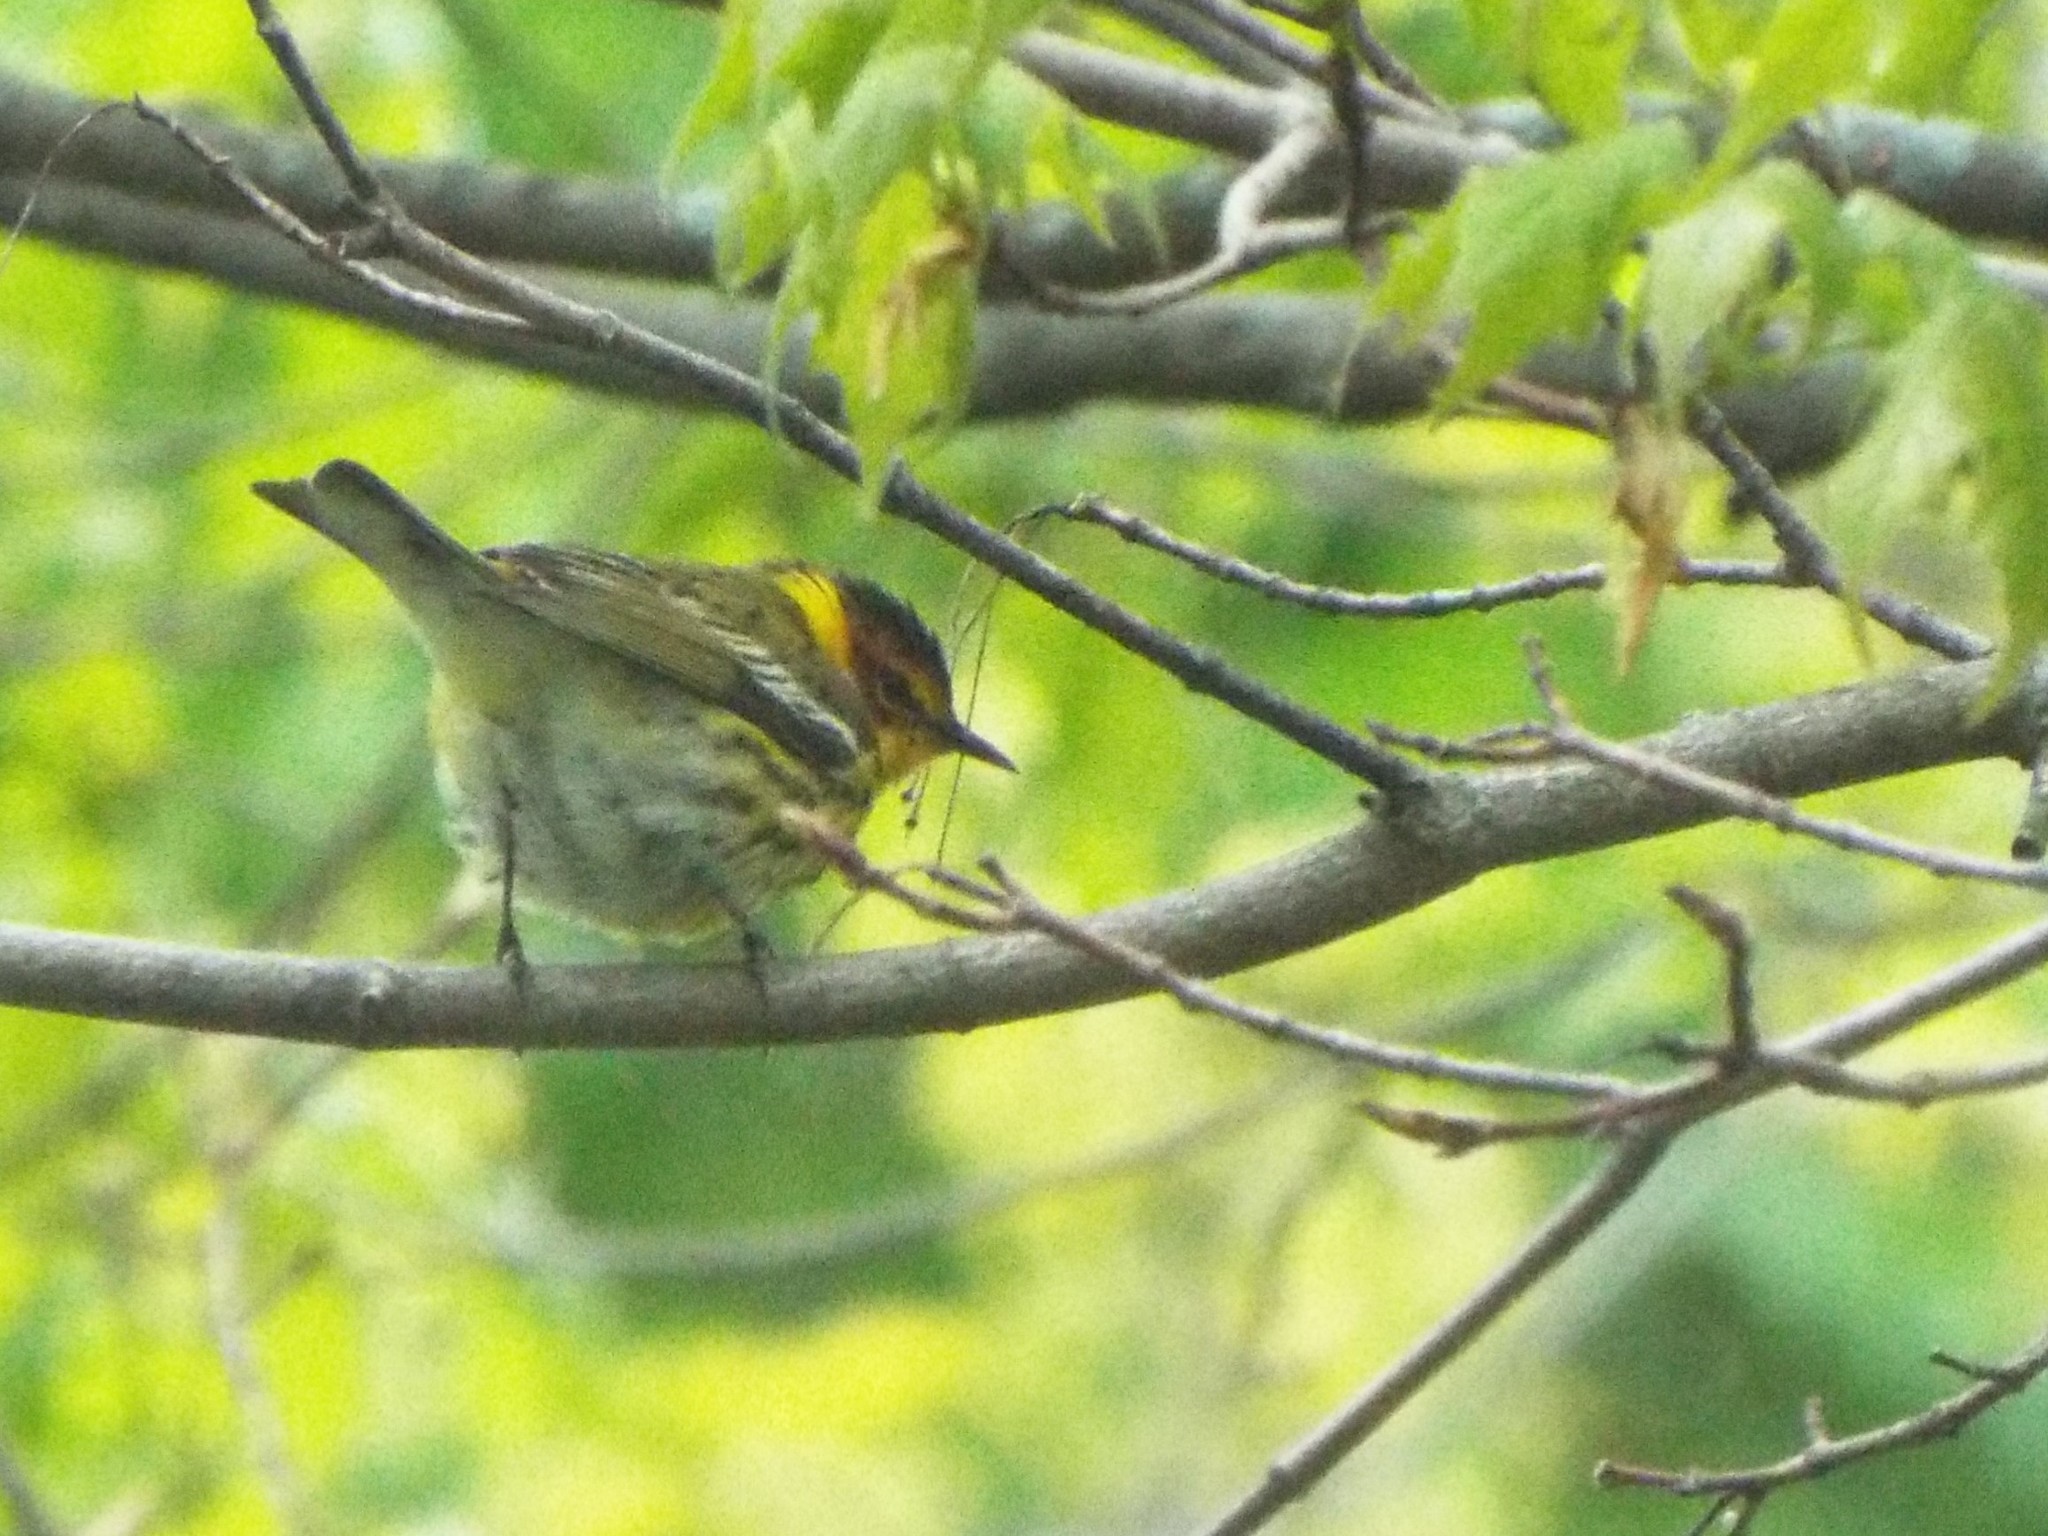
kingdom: Animalia
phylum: Chordata
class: Aves
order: Passeriformes
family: Parulidae
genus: Setophaga
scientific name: Setophaga tigrina
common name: Cape may warbler
